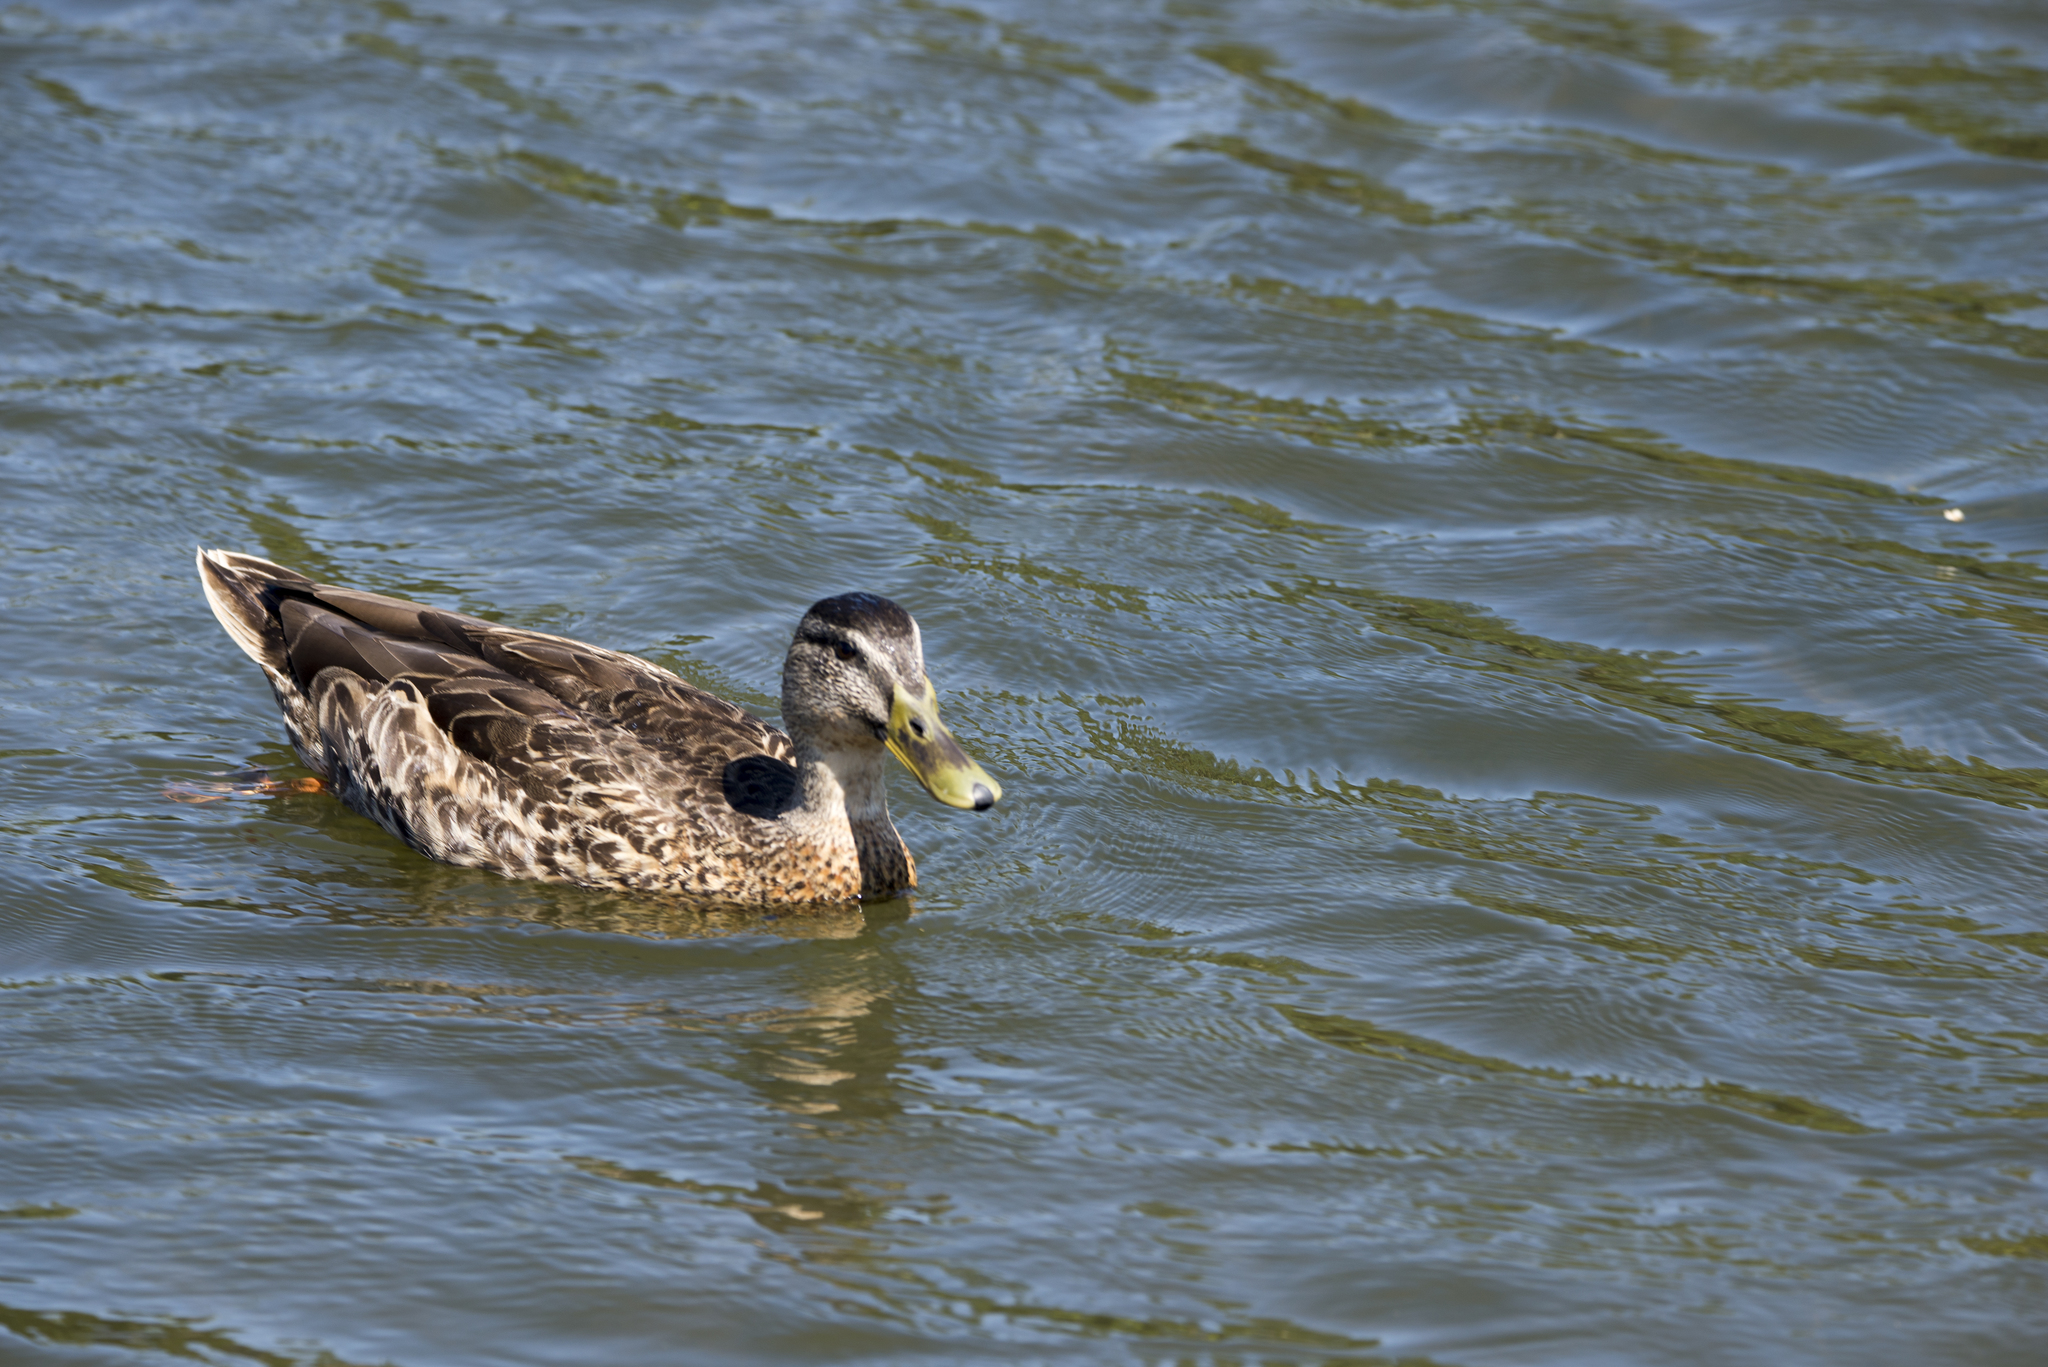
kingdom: Animalia
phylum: Chordata
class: Aves
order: Anseriformes
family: Anatidae
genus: Anas
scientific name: Anas
